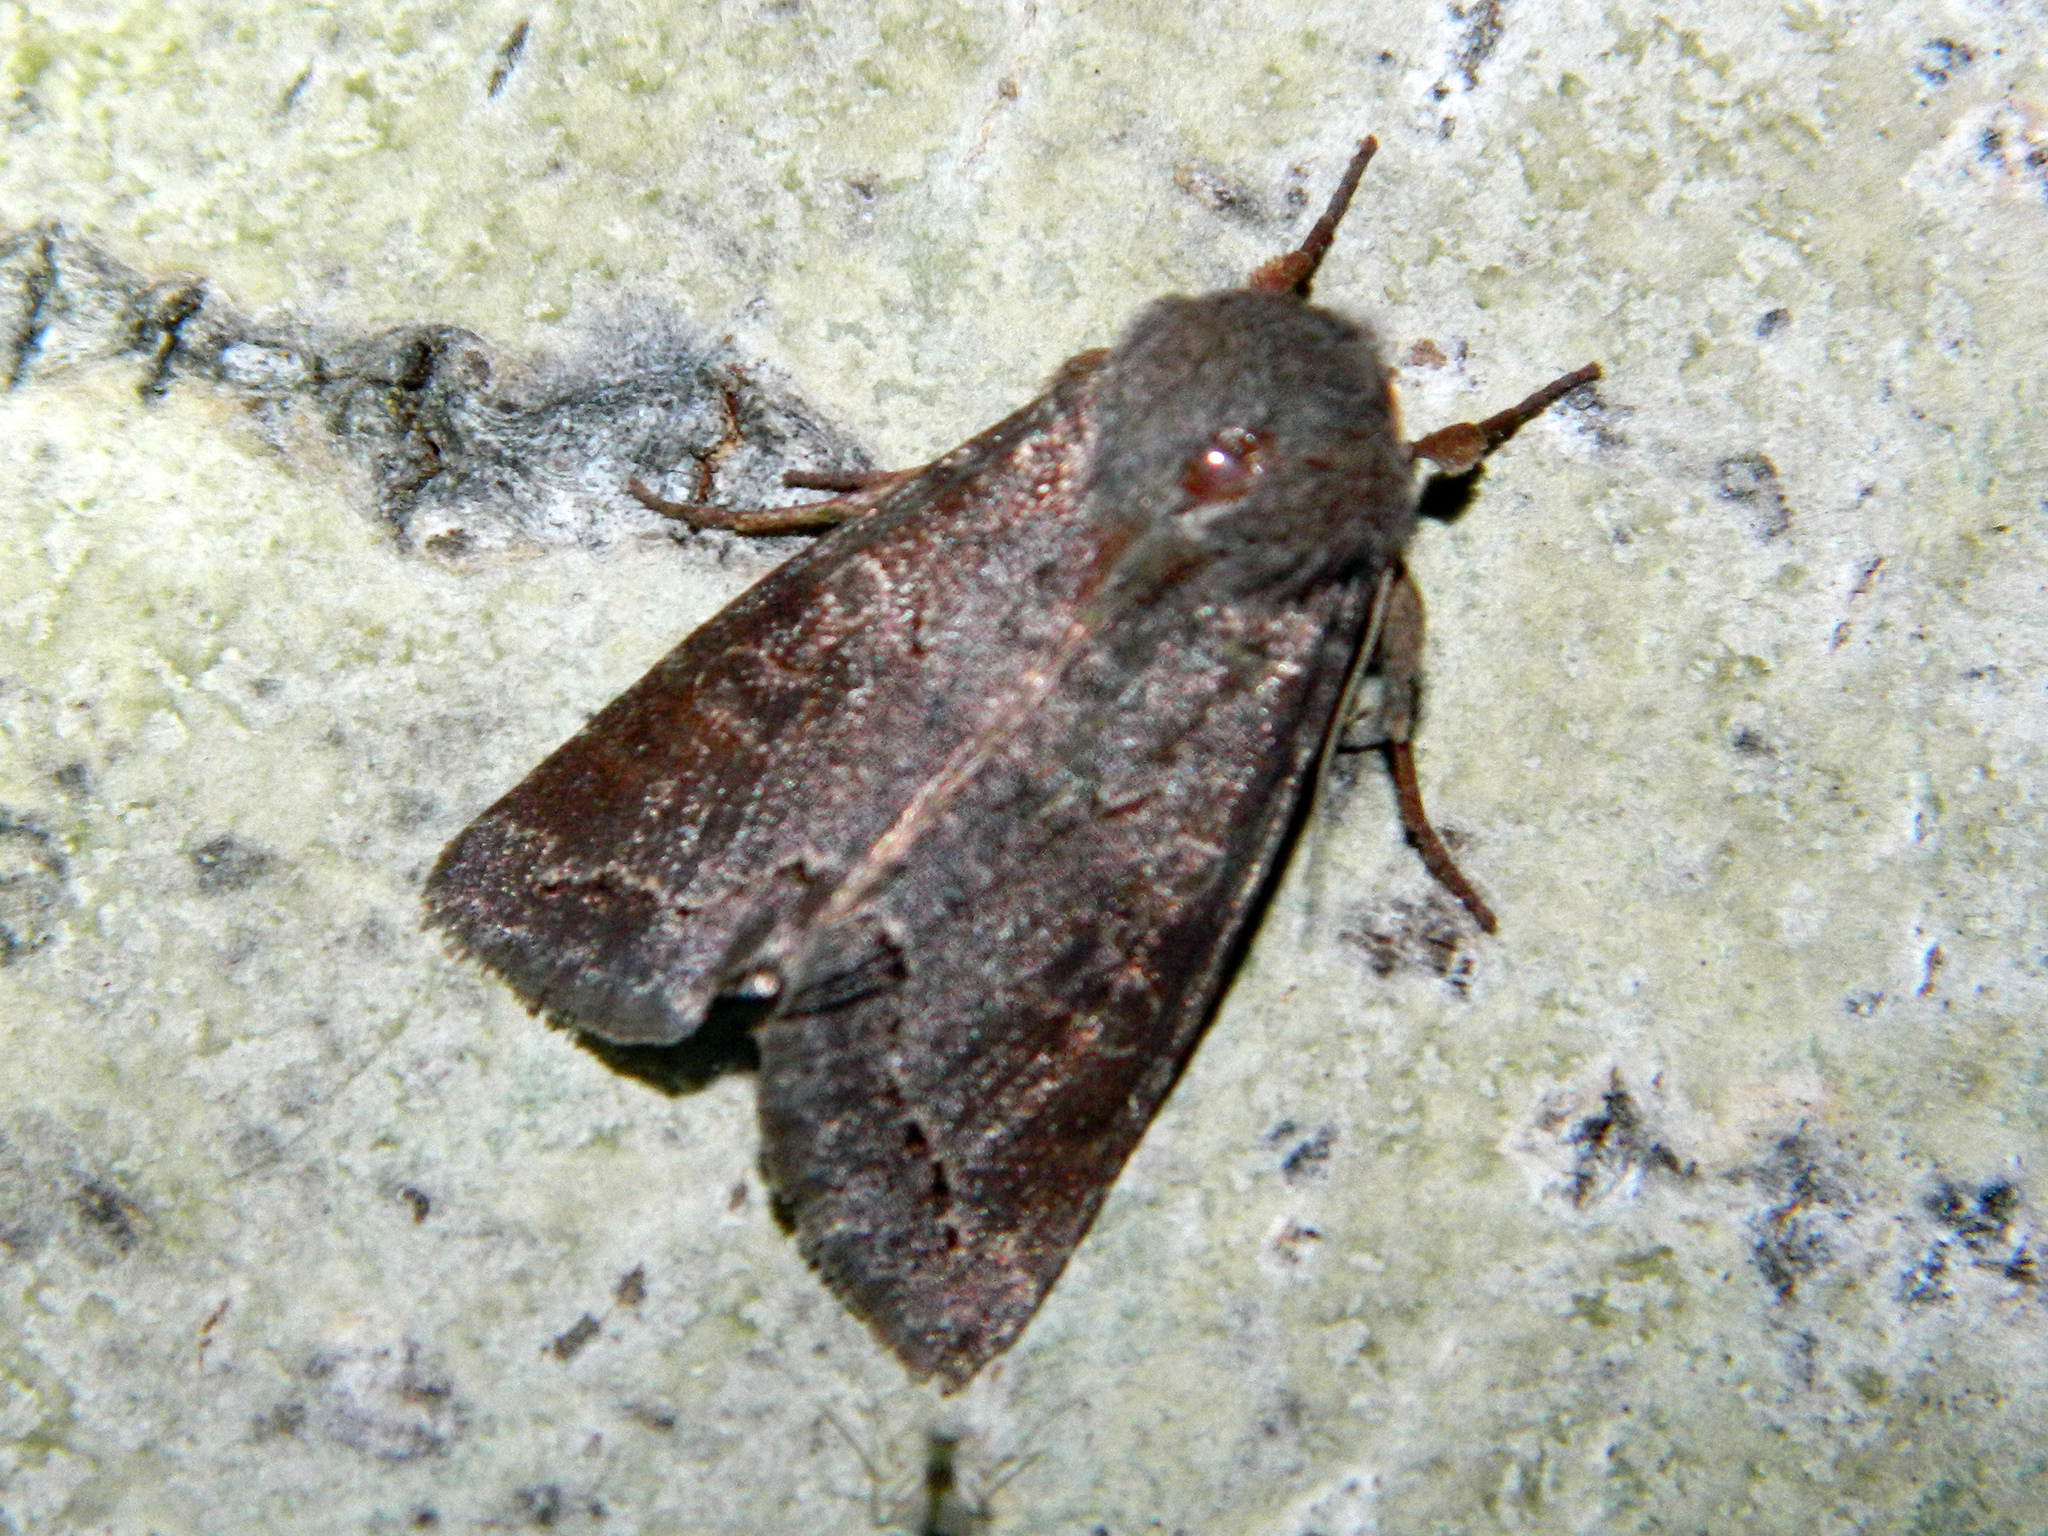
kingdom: Animalia
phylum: Arthropoda
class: Insecta
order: Lepidoptera
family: Noctuidae
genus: Orthosia
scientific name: Orthosia revicta
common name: Rusty whitesided caterpillar
